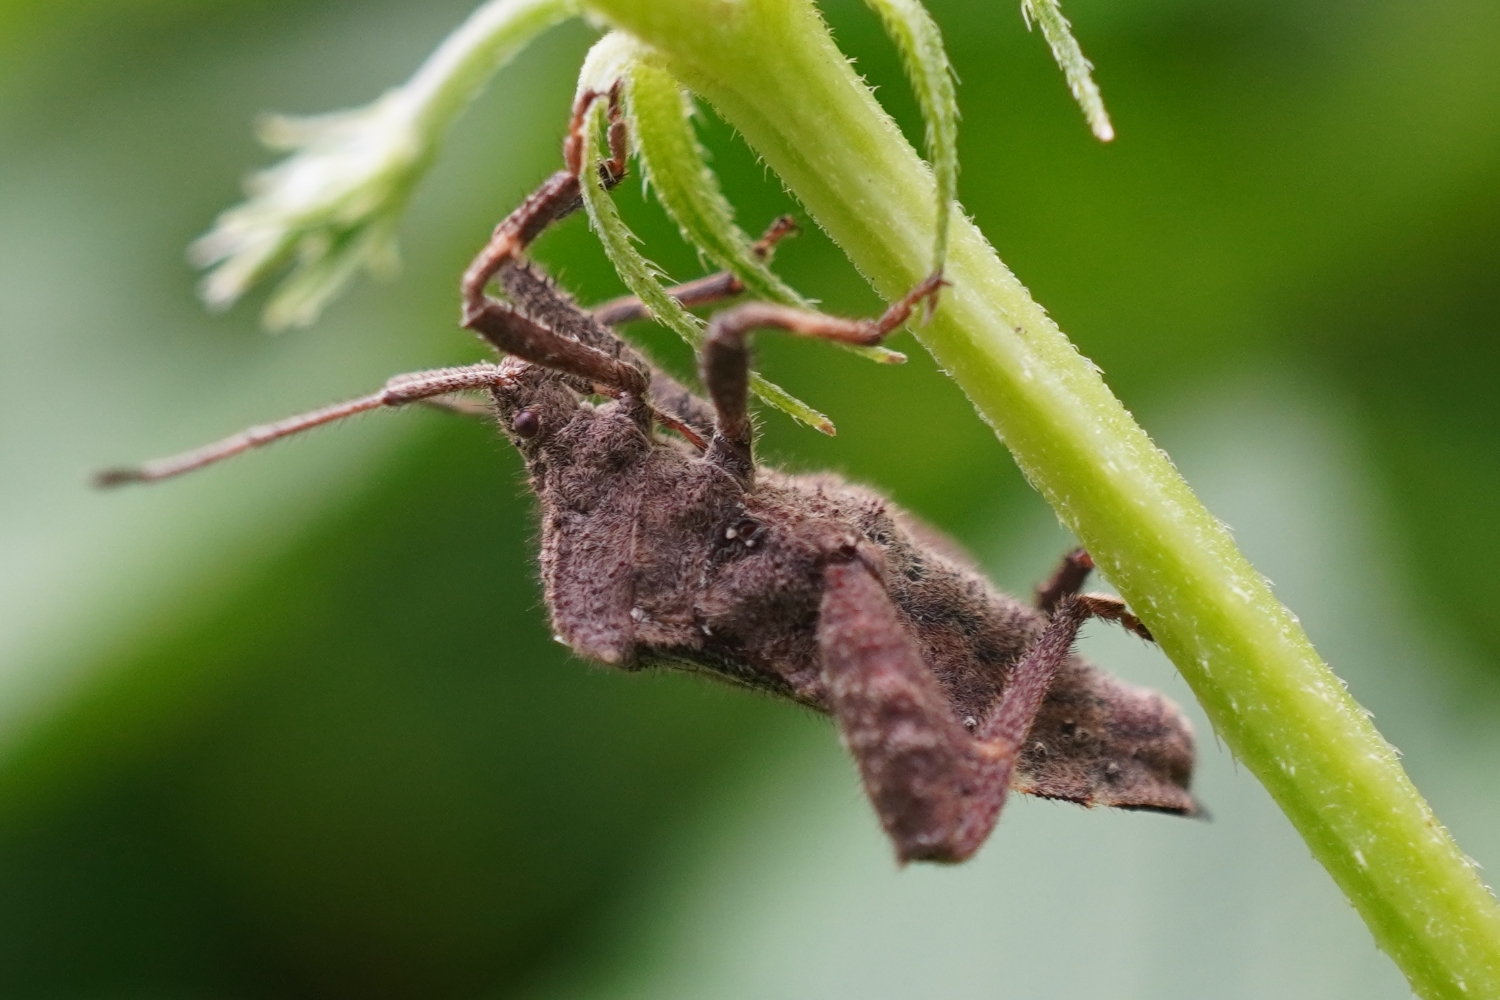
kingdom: Animalia
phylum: Arthropoda
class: Insecta
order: Hemiptera
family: Coreidae
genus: Acanthocoris
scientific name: Acanthocoris sordidus
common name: Winter cherry bug
